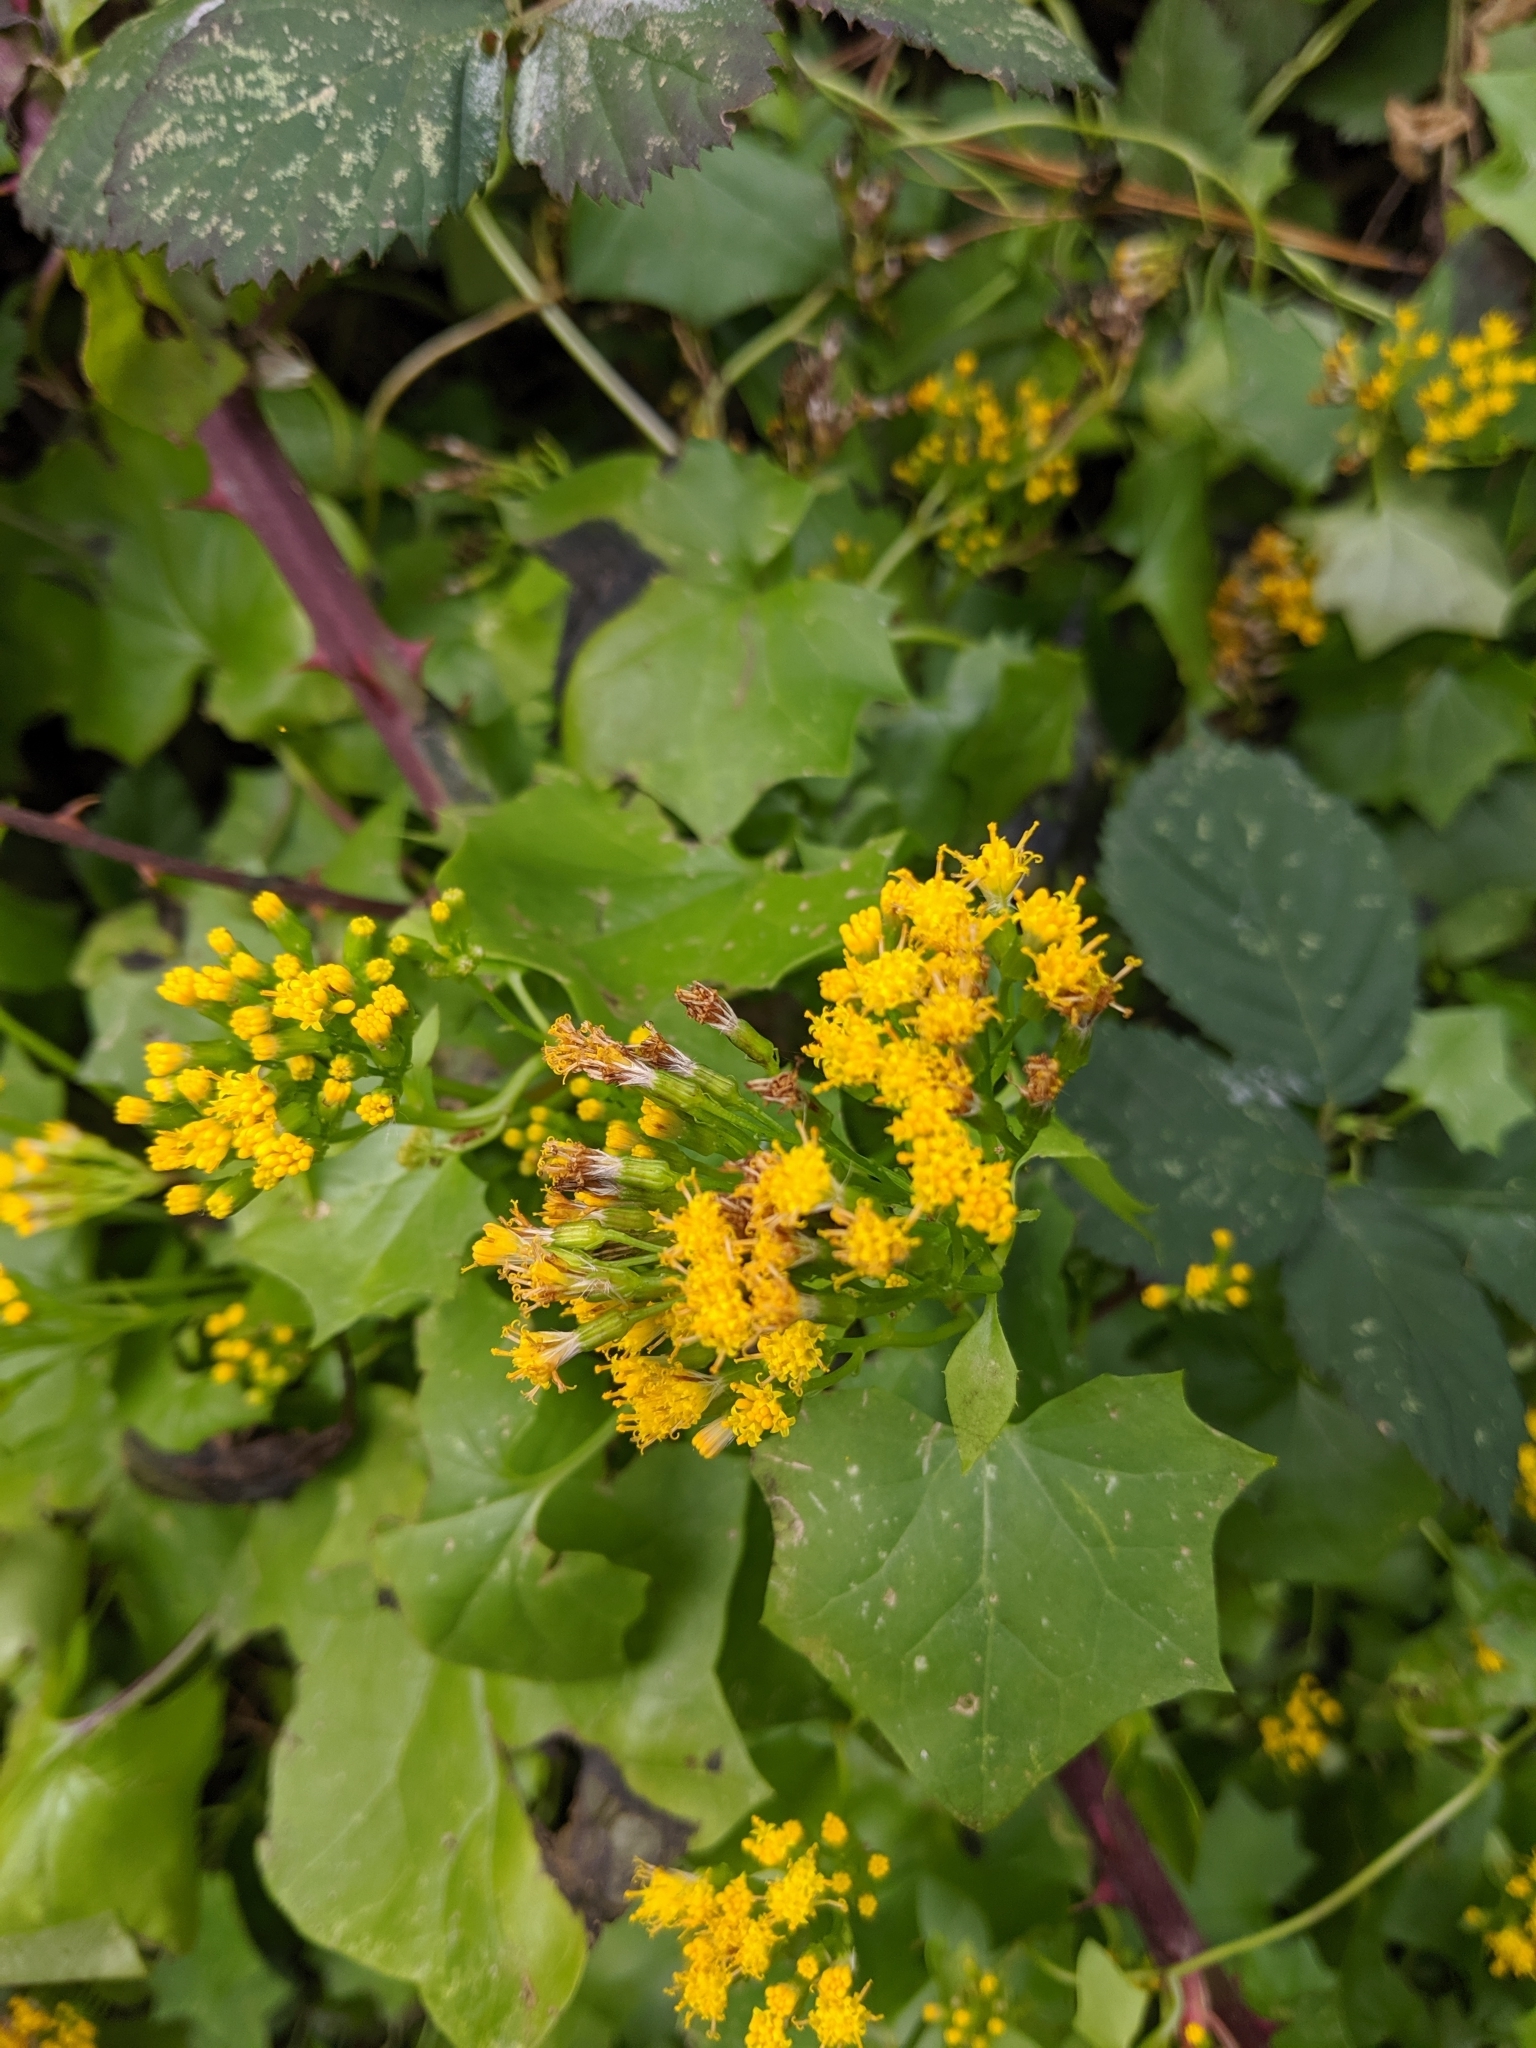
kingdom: Plantae
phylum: Tracheophyta
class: Magnoliopsida
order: Asterales
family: Asteraceae
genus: Delairea
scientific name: Delairea odorata
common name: Cape-ivy
